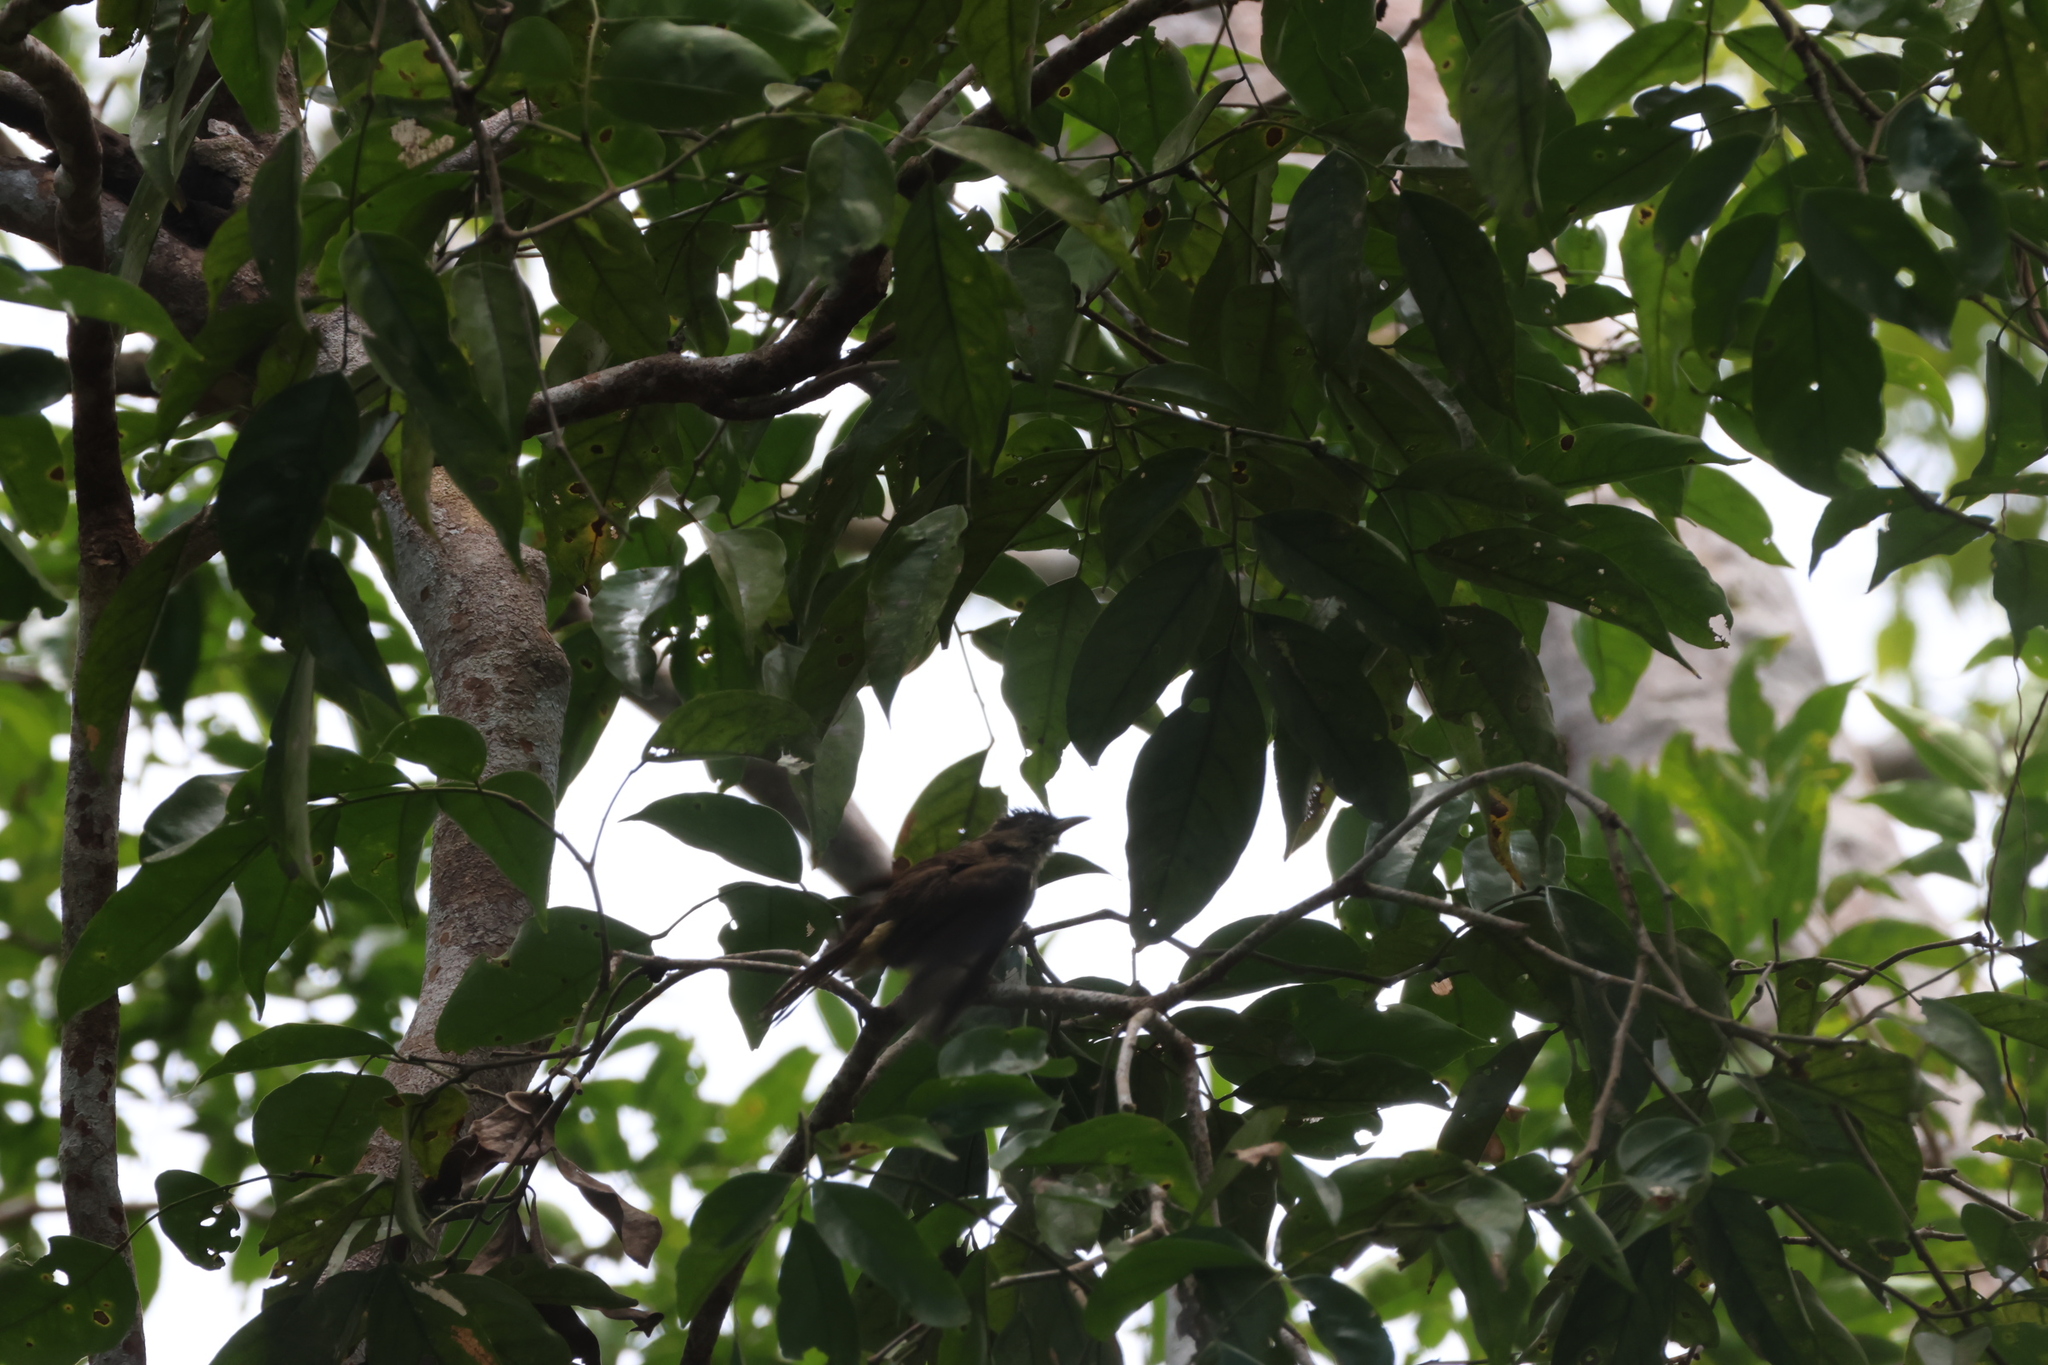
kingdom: Animalia
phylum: Chordata
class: Aves
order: Passeriformes
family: Pycnonotidae
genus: Iole
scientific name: Iole olivacea
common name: Buff-vented bulbul
